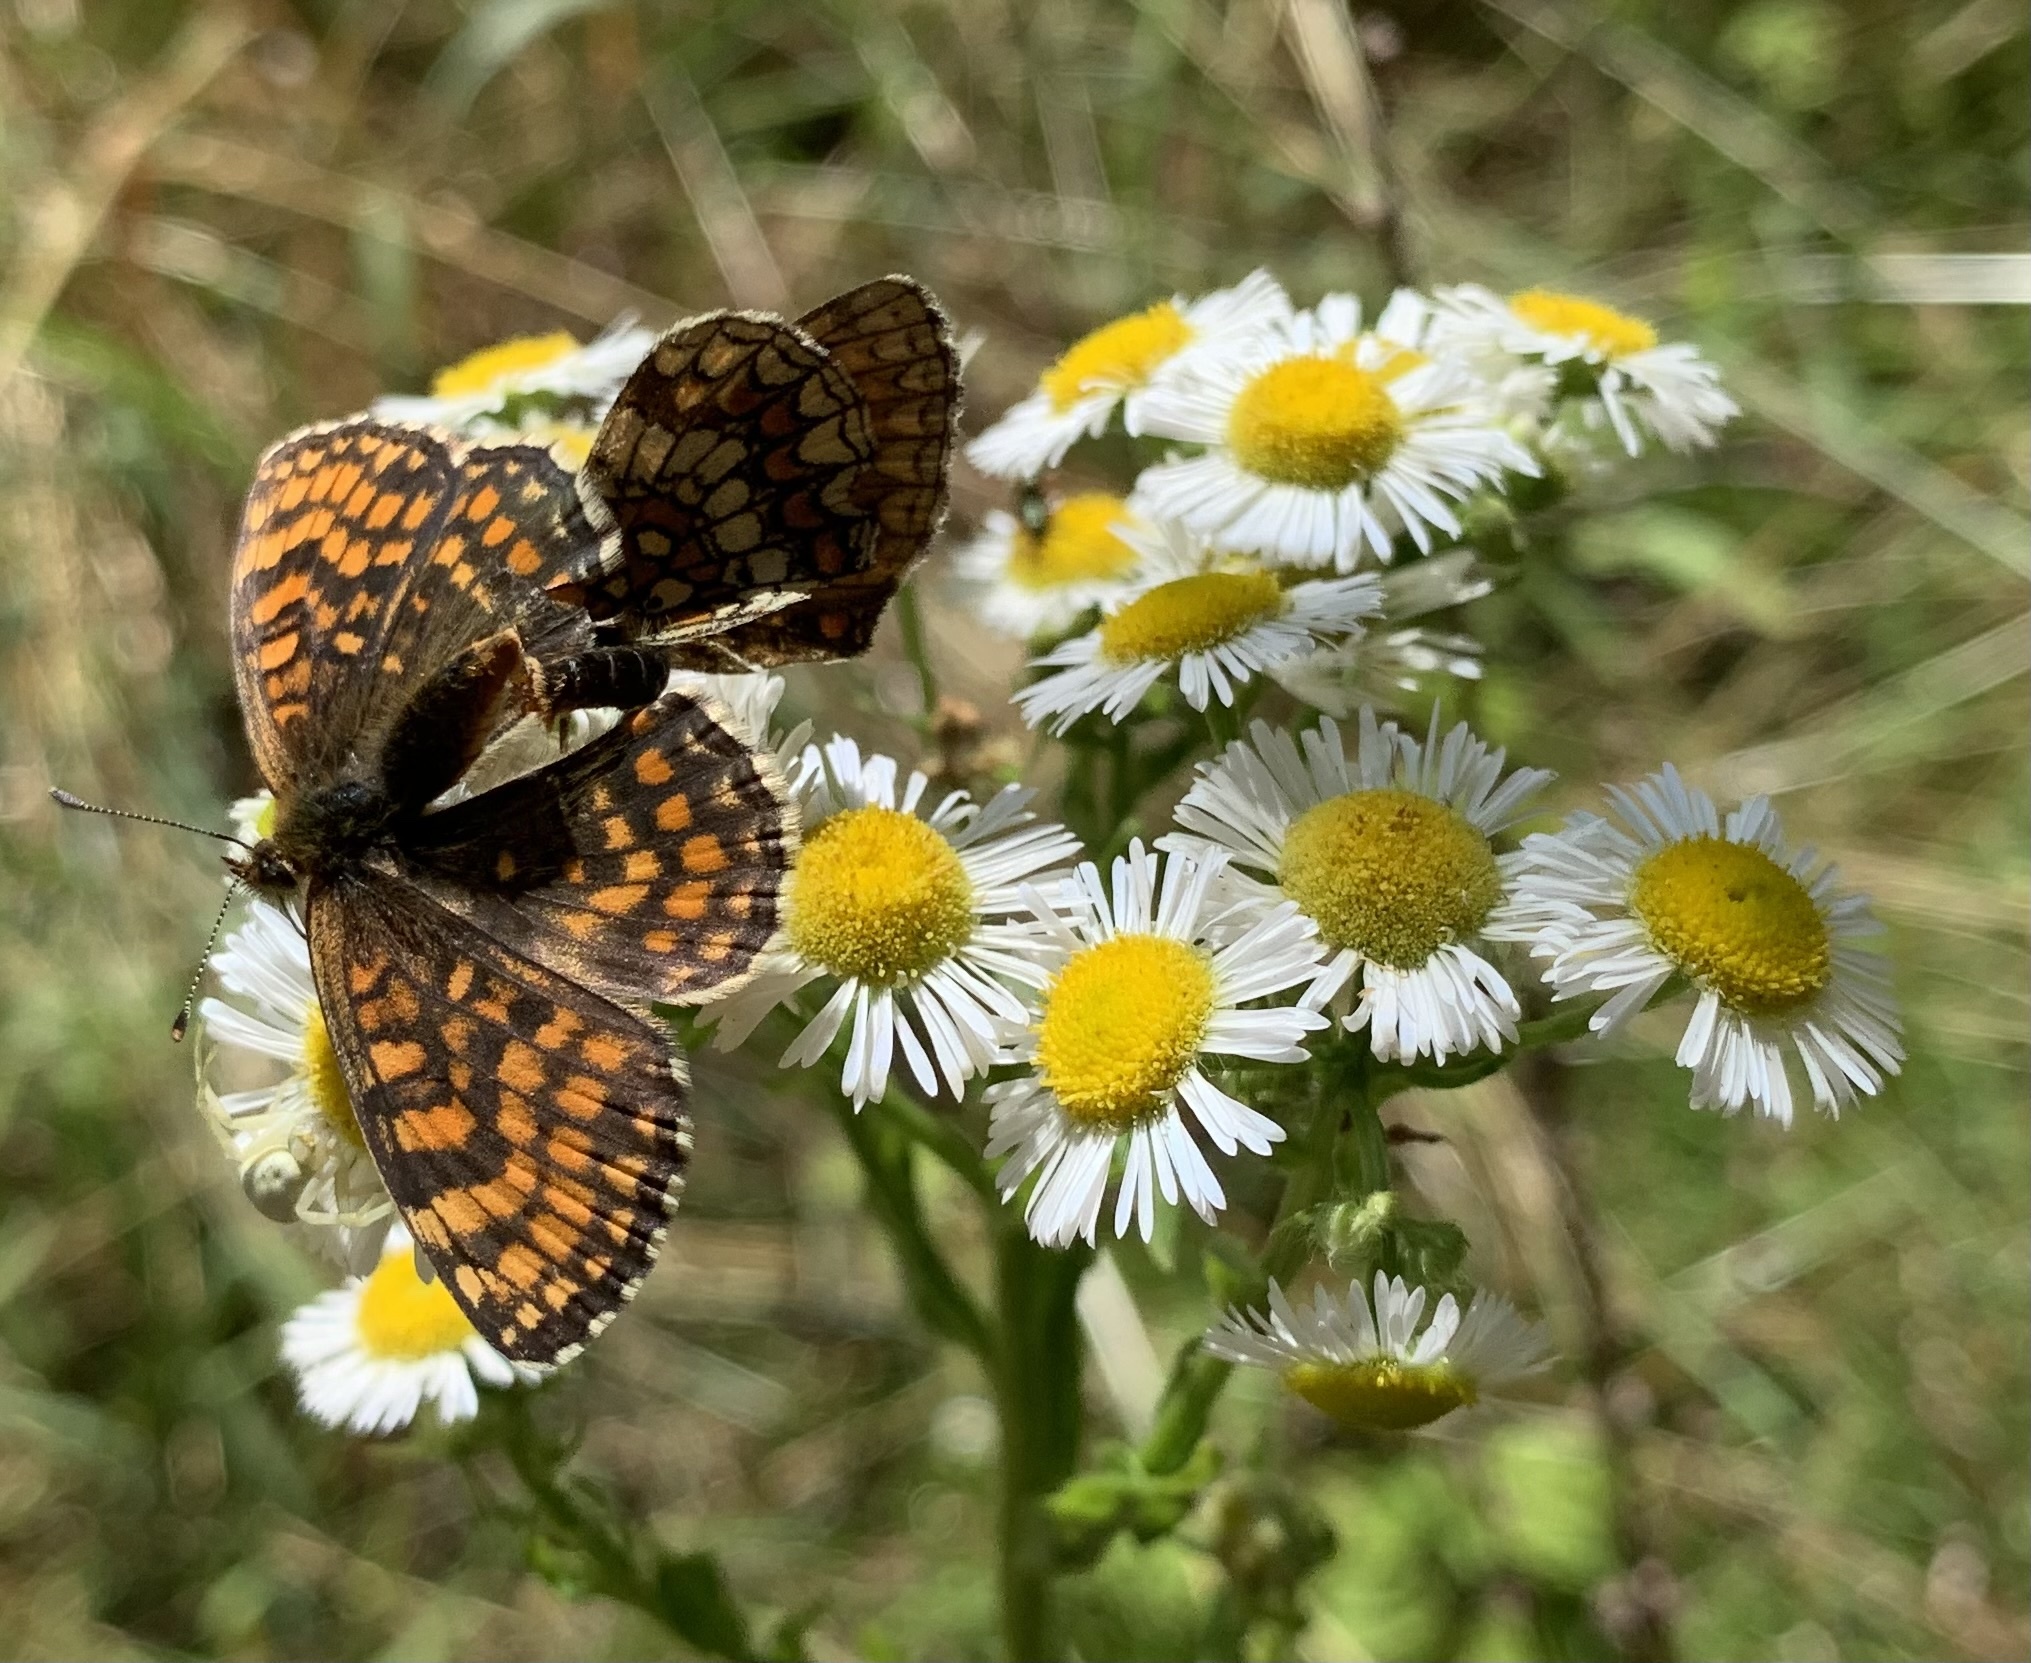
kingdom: Animalia
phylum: Arthropoda
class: Insecta
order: Lepidoptera
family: Nymphalidae
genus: Melitaea
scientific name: Melitaea athalia
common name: Heath fritillary
